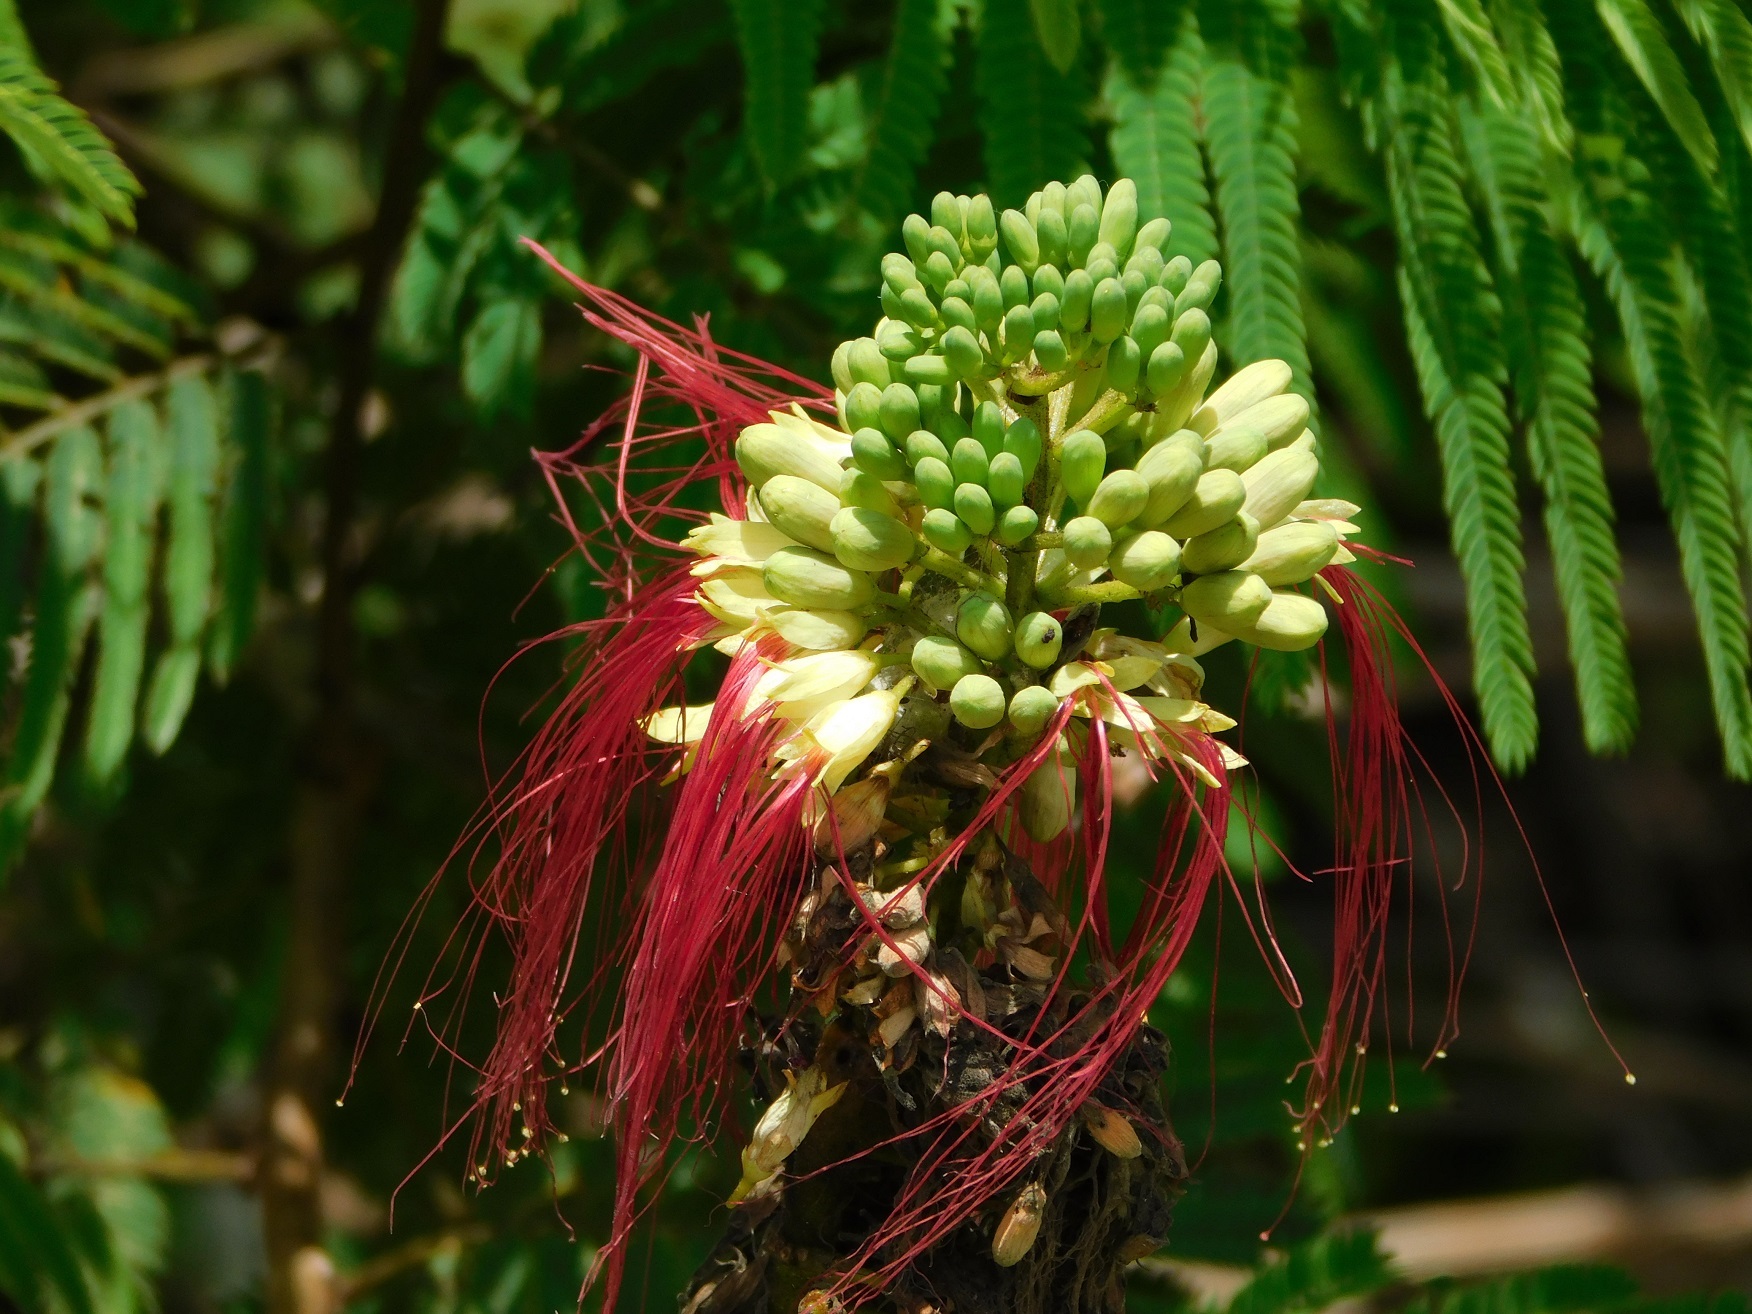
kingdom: Plantae
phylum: Tracheophyta
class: Magnoliopsida
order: Fabales
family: Fabaceae
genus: Calliandra
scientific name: Calliandra houstoniana
